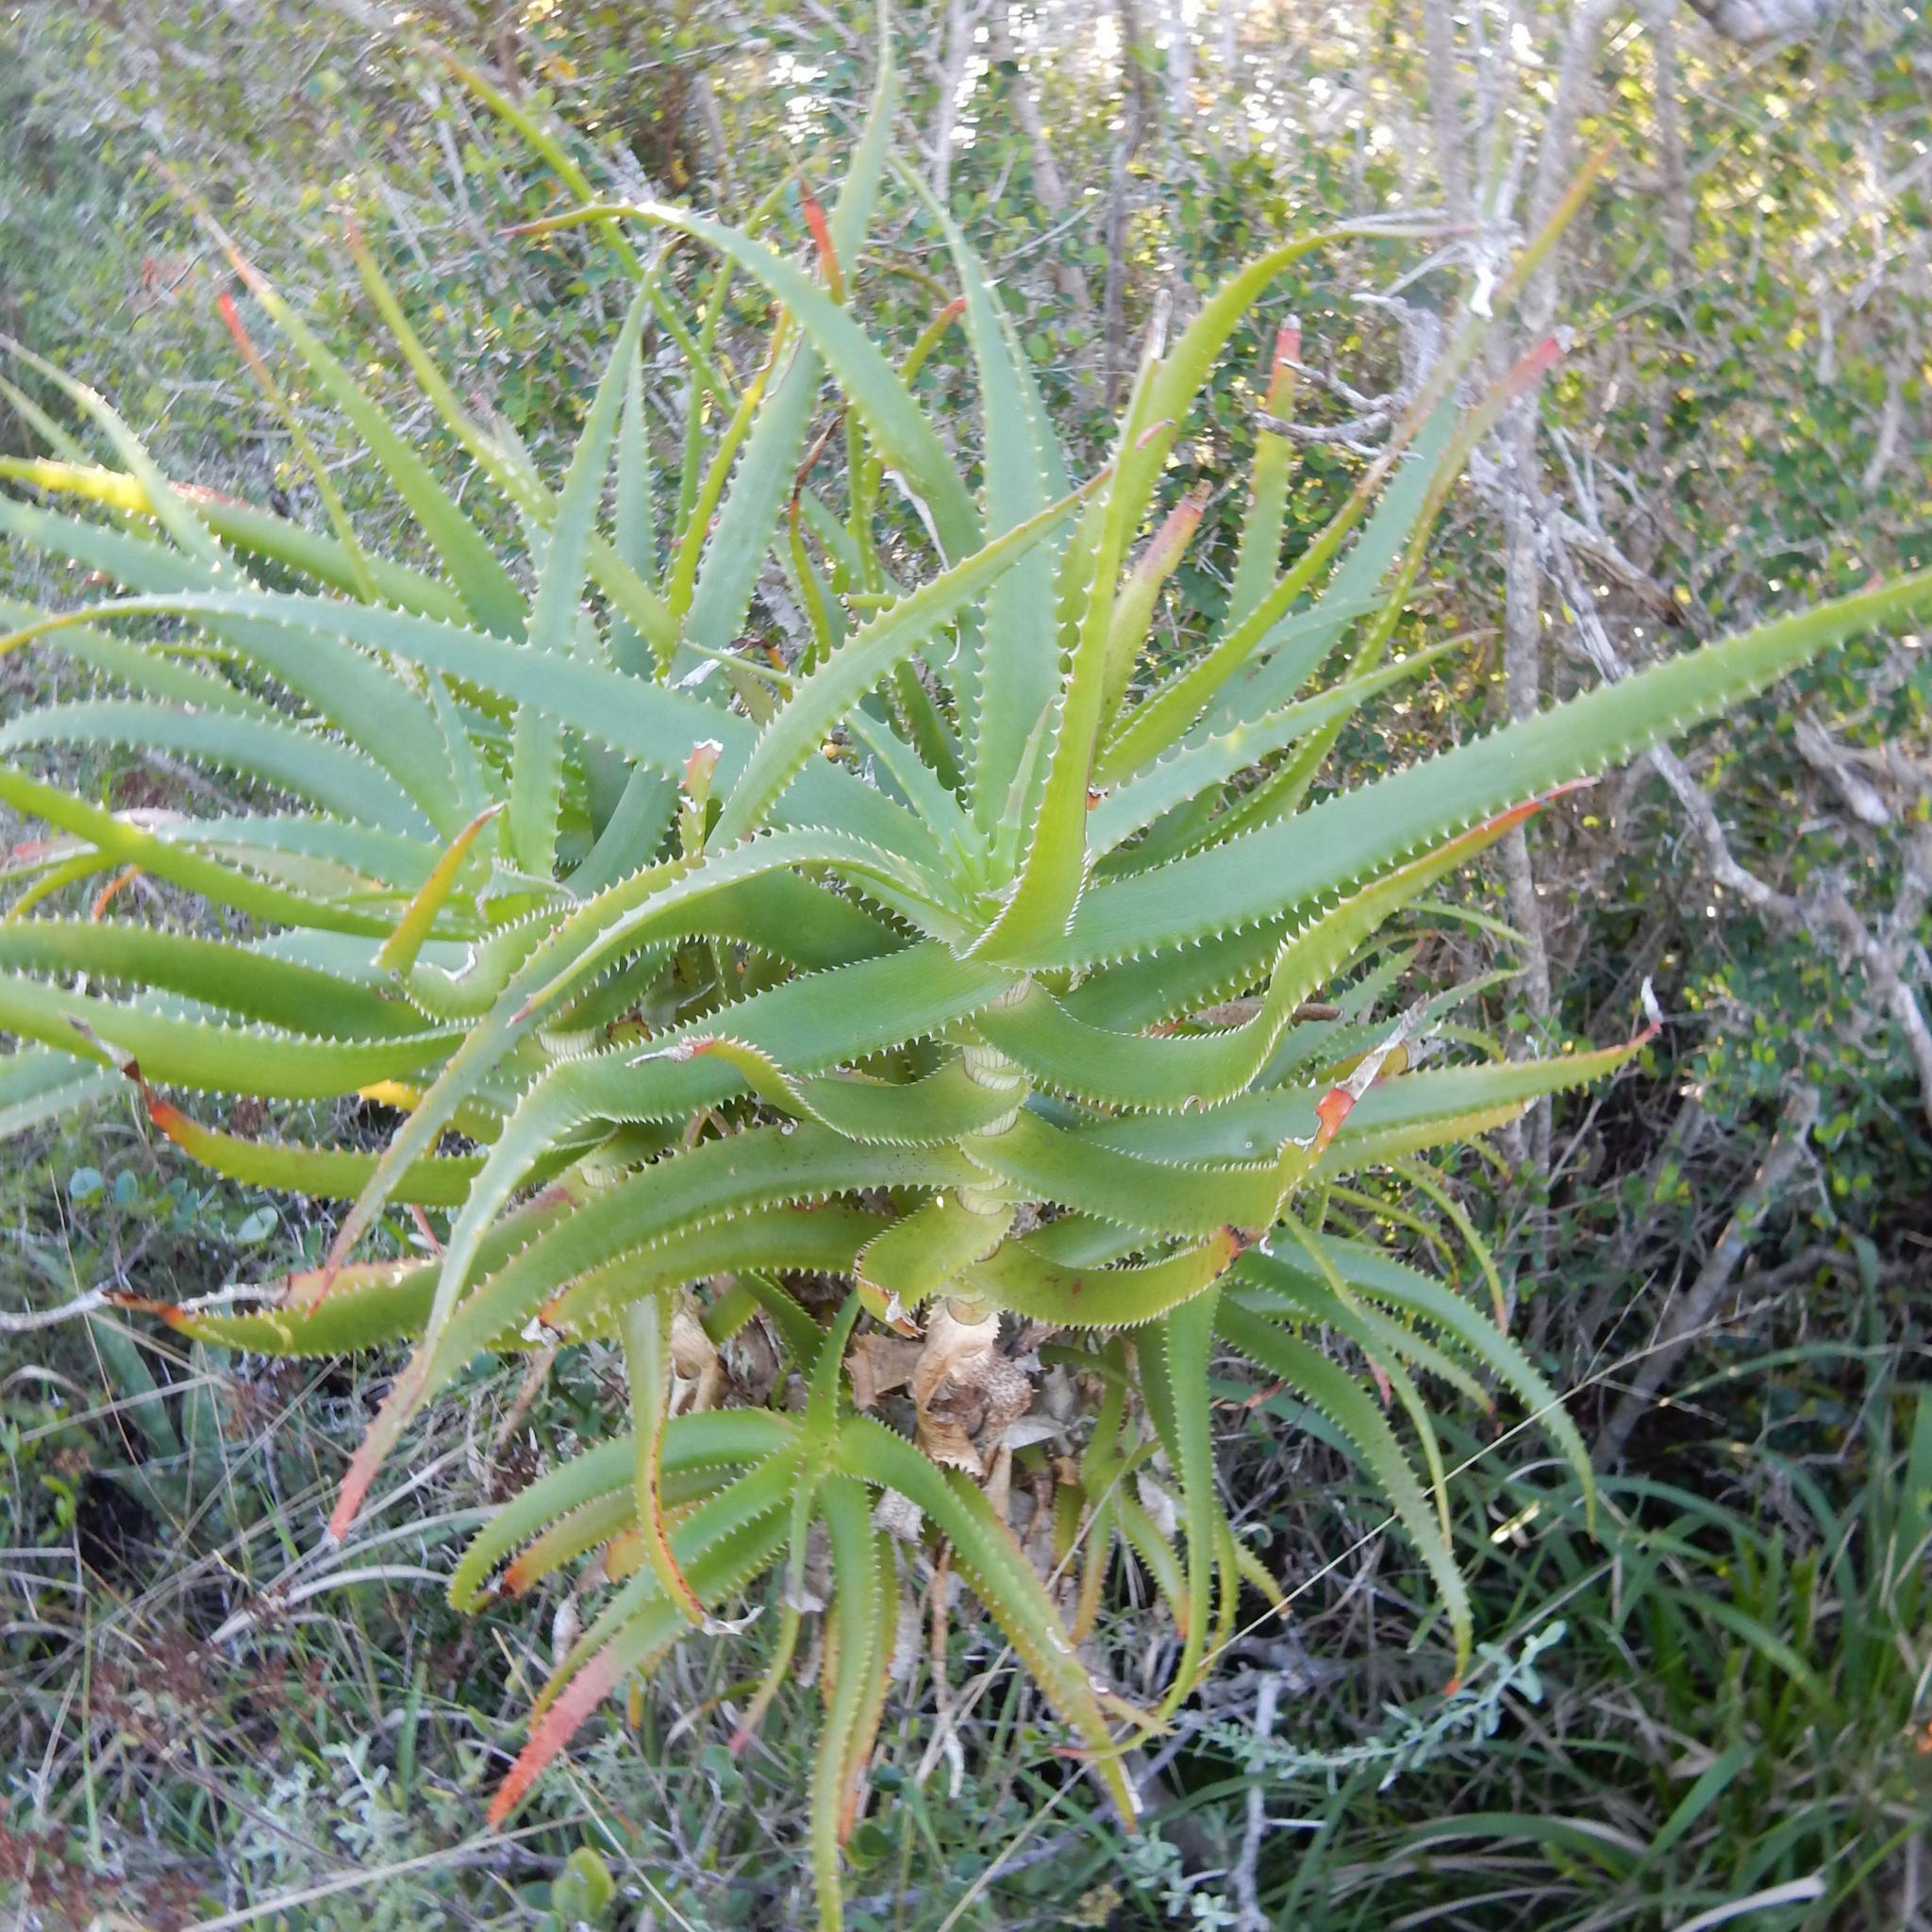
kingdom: Plantae
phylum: Tracheophyta
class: Liliopsida
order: Asparagales
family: Asphodelaceae
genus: Aloe
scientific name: Aloe pluridens
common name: French aloe
